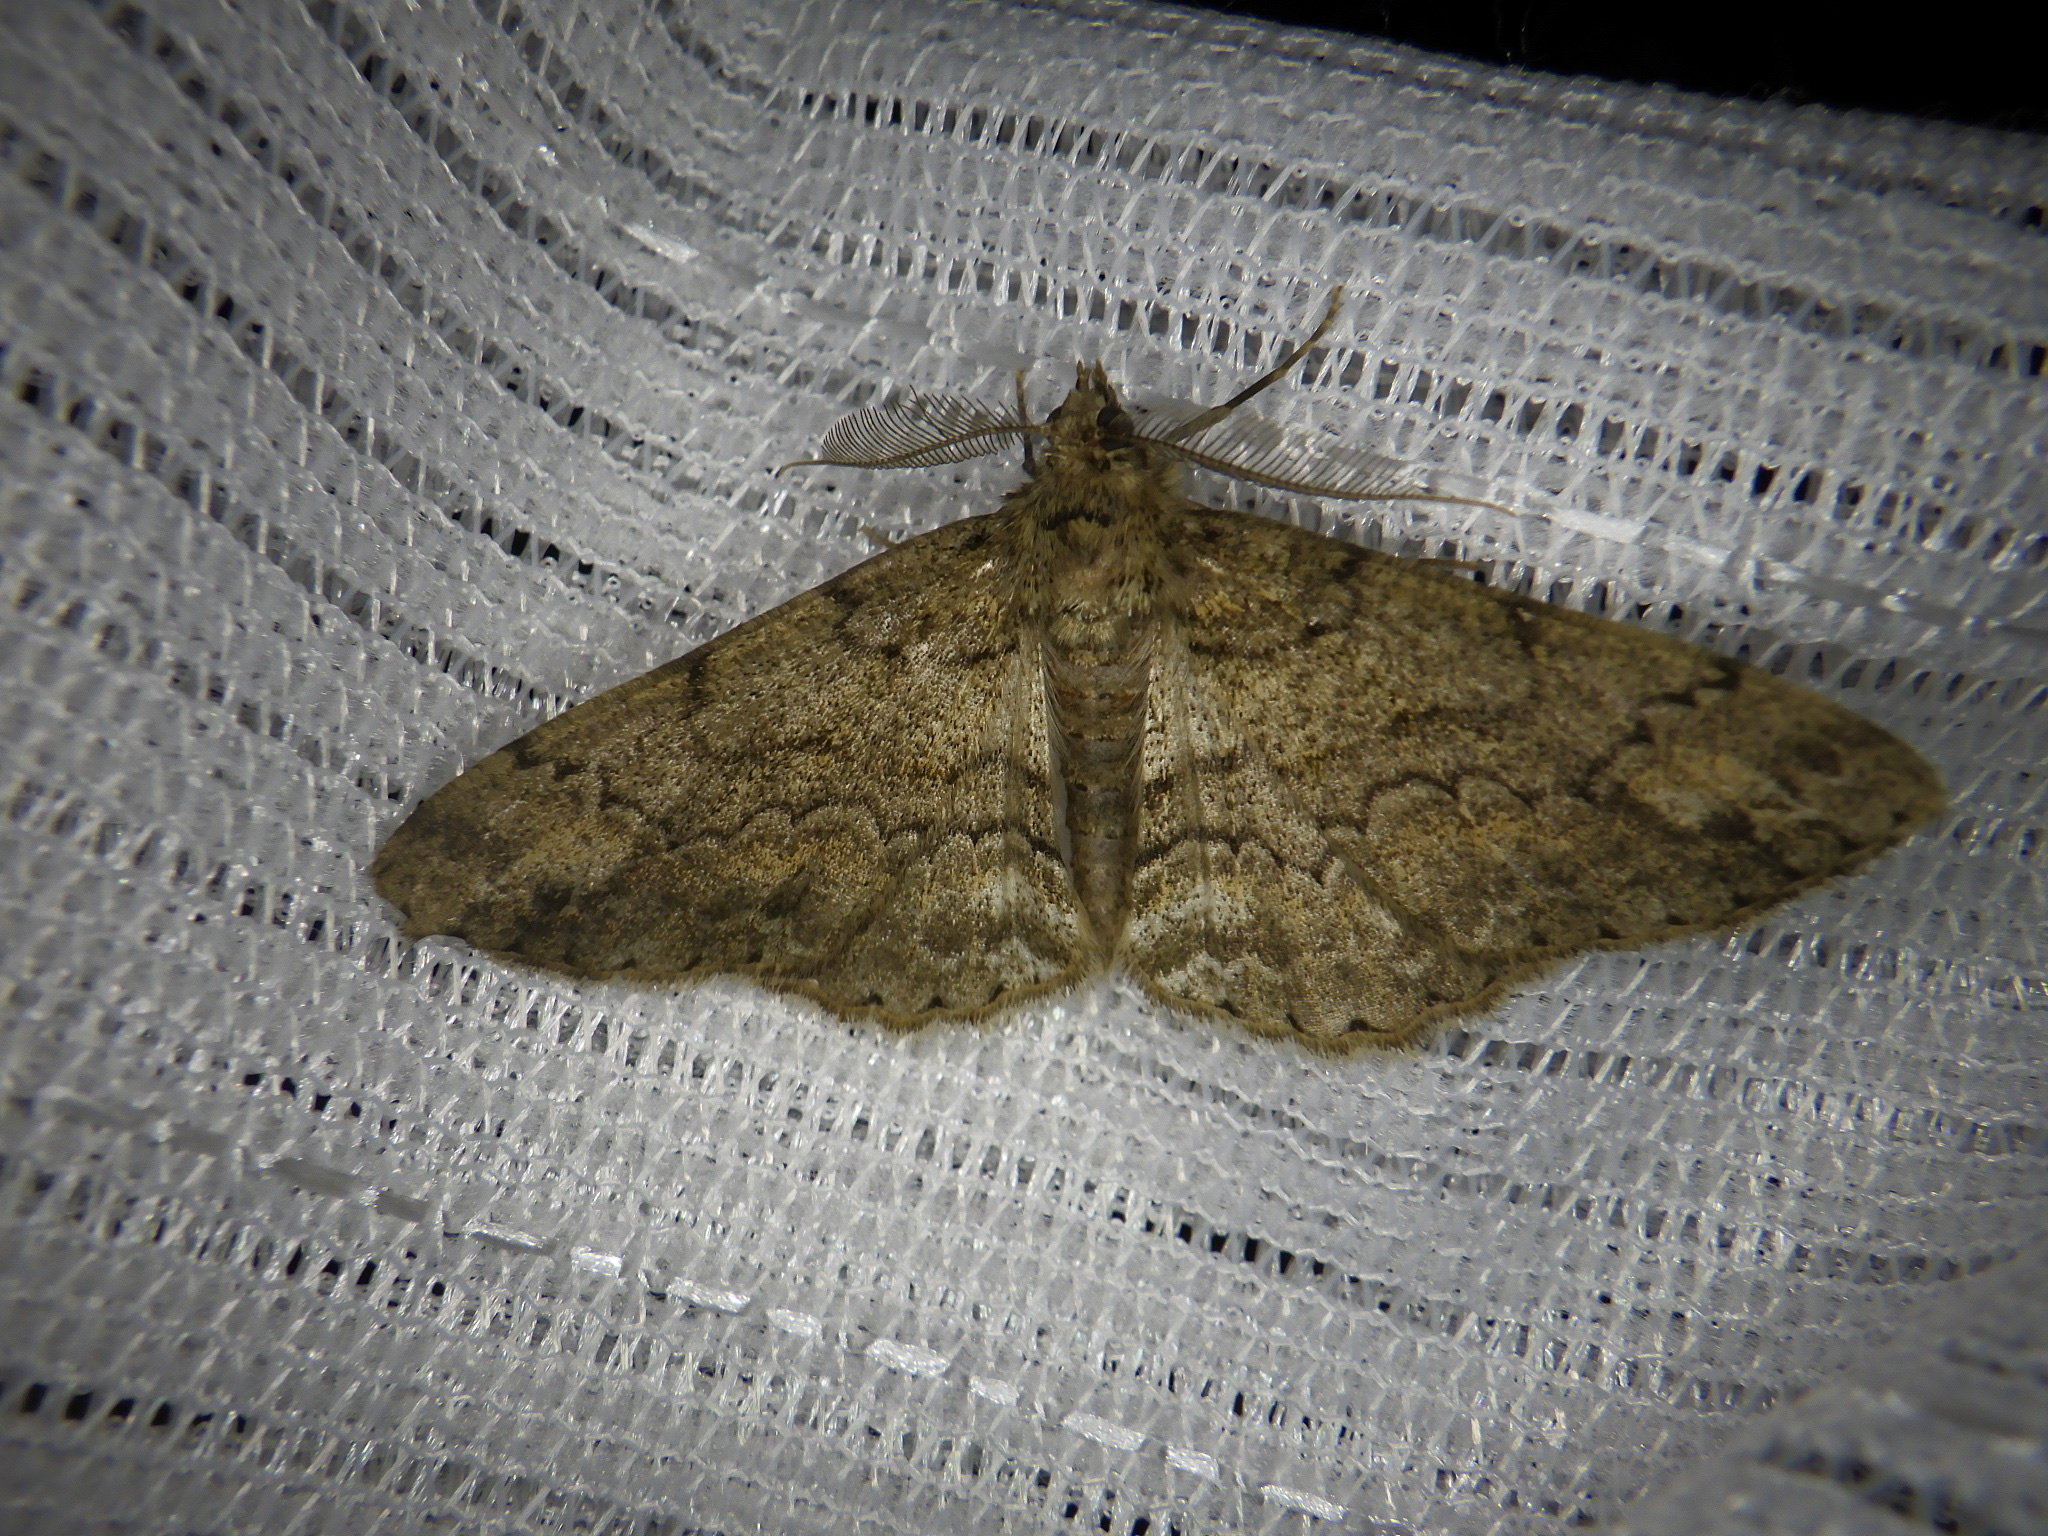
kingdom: Animalia
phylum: Arthropoda
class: Insecta
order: Lepidoptera
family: Geometridae
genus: Cleora
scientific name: Cleora leucophaea
